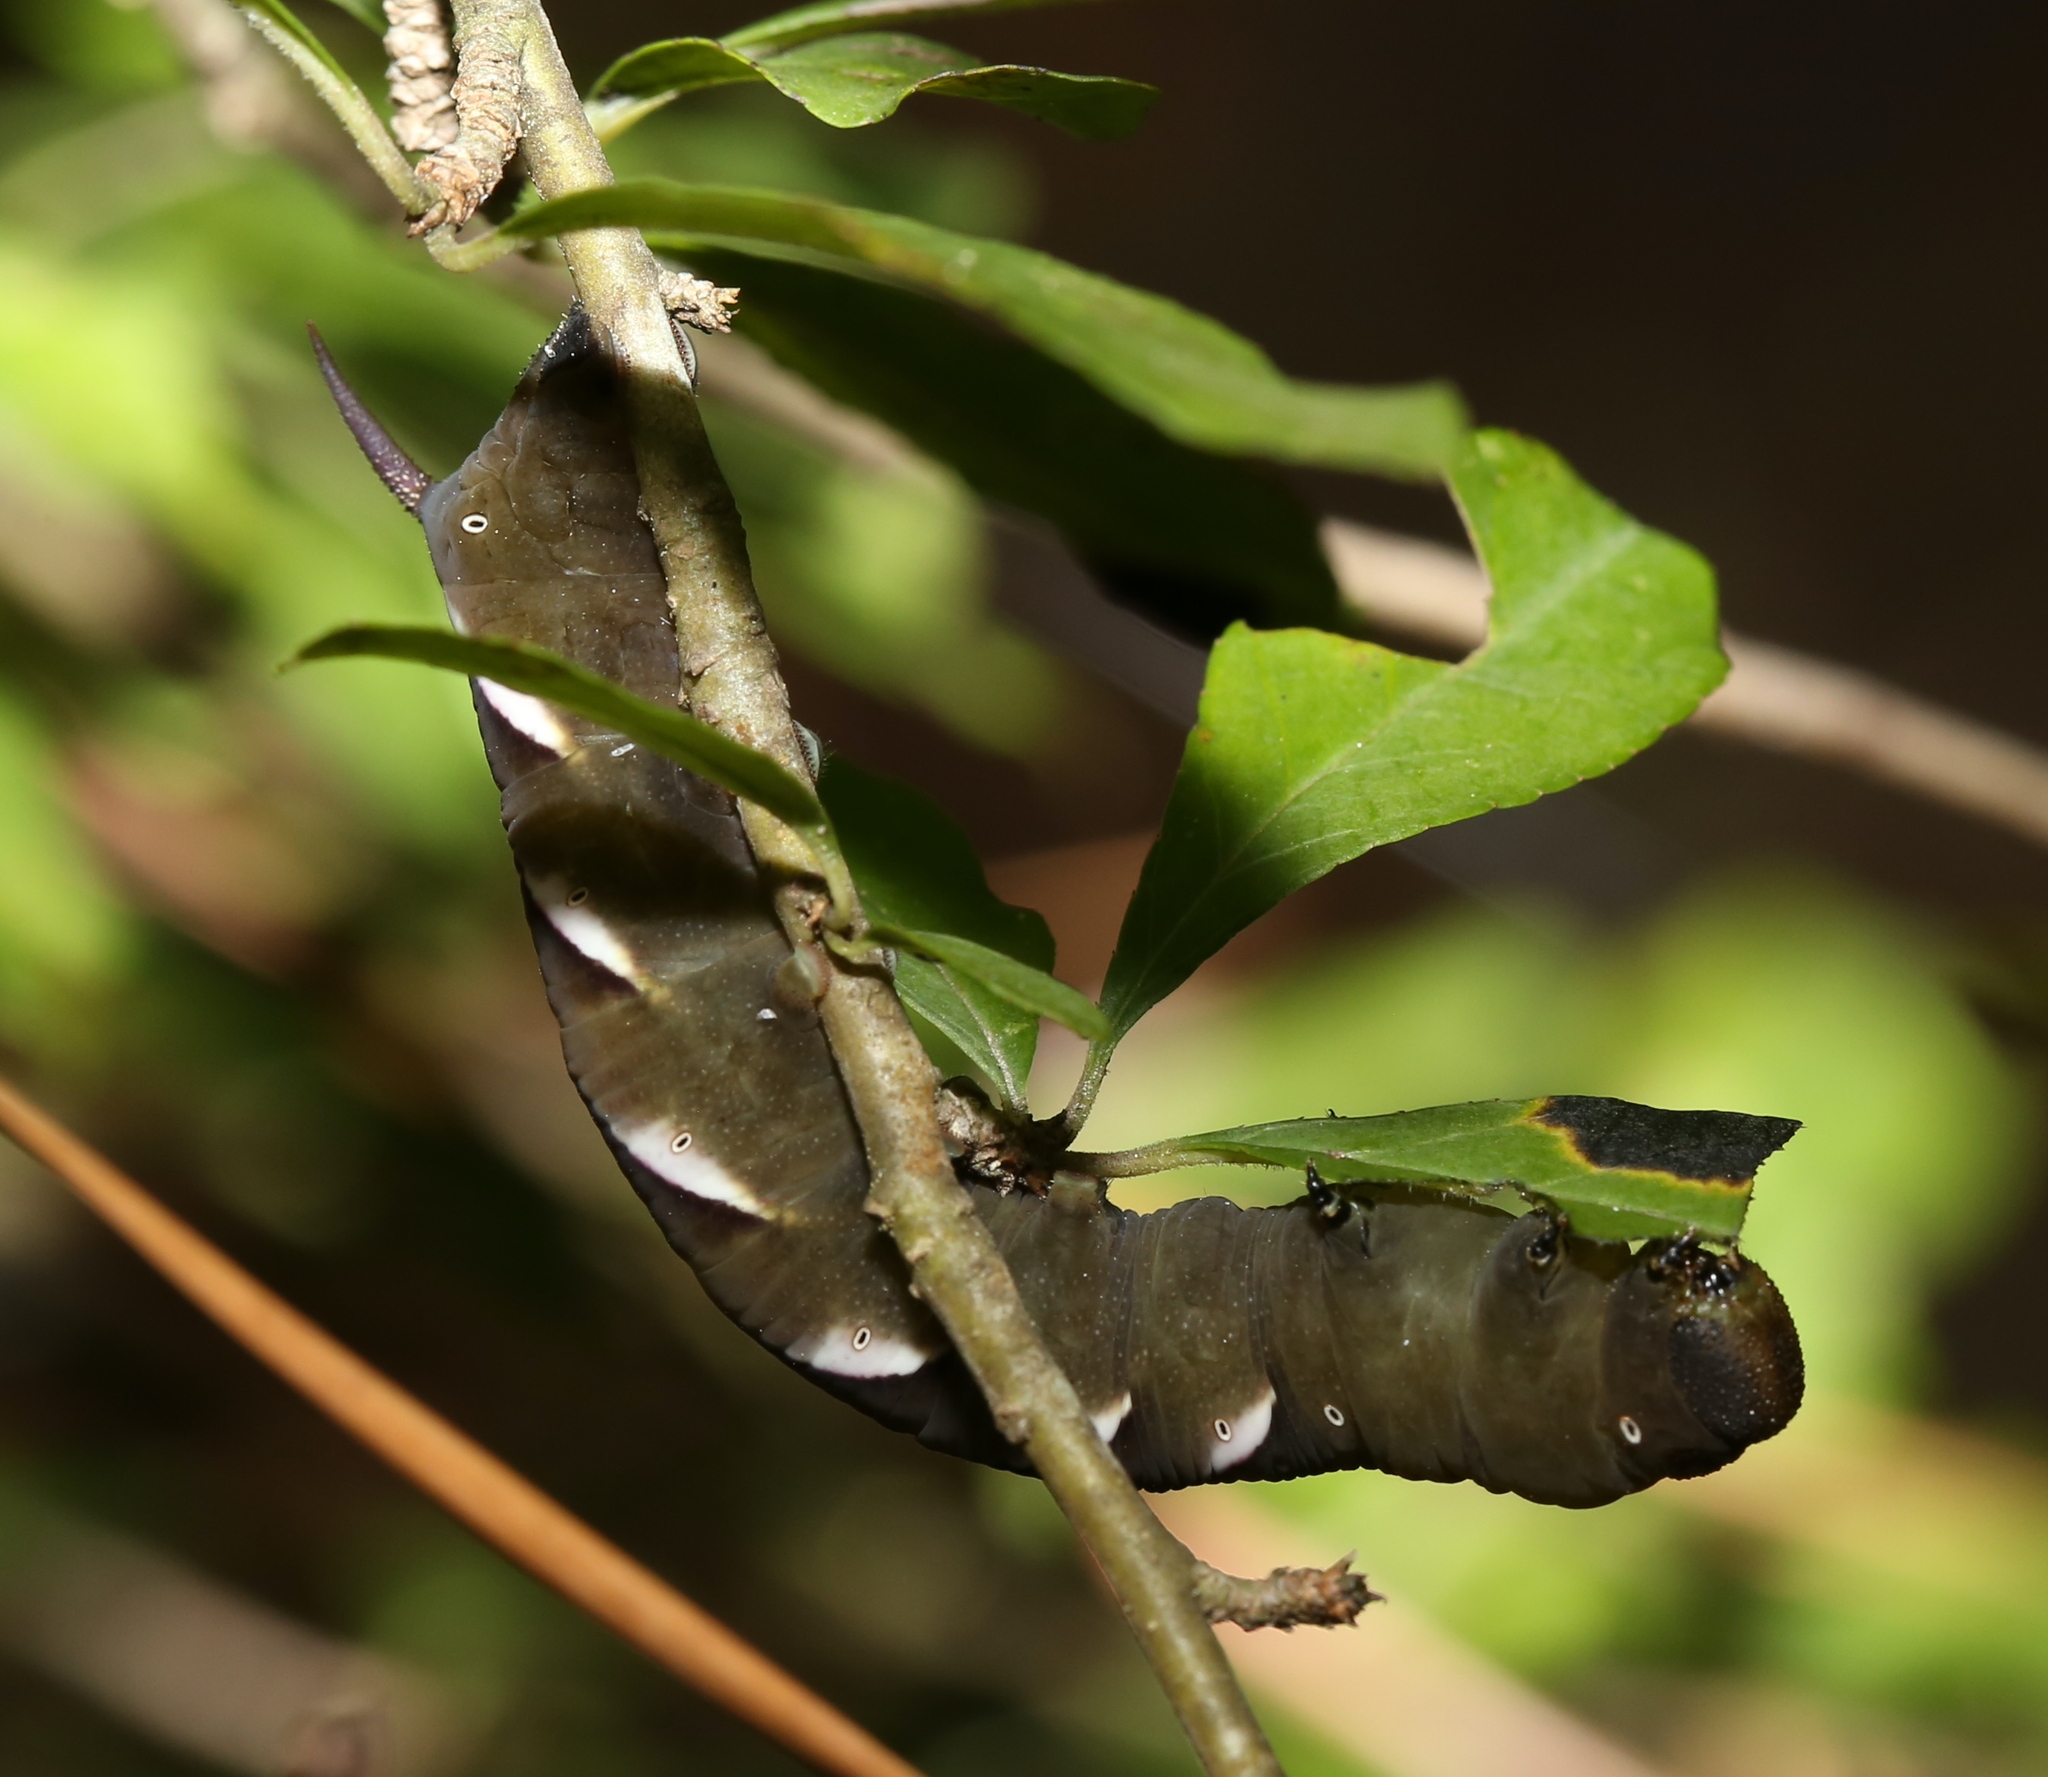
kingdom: Animalia
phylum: Arthropoda
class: Insecta
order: Lepidoptera
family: Sphingidae
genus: Dolba
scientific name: Dolba hyloeus
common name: Pawpaw sphinx
